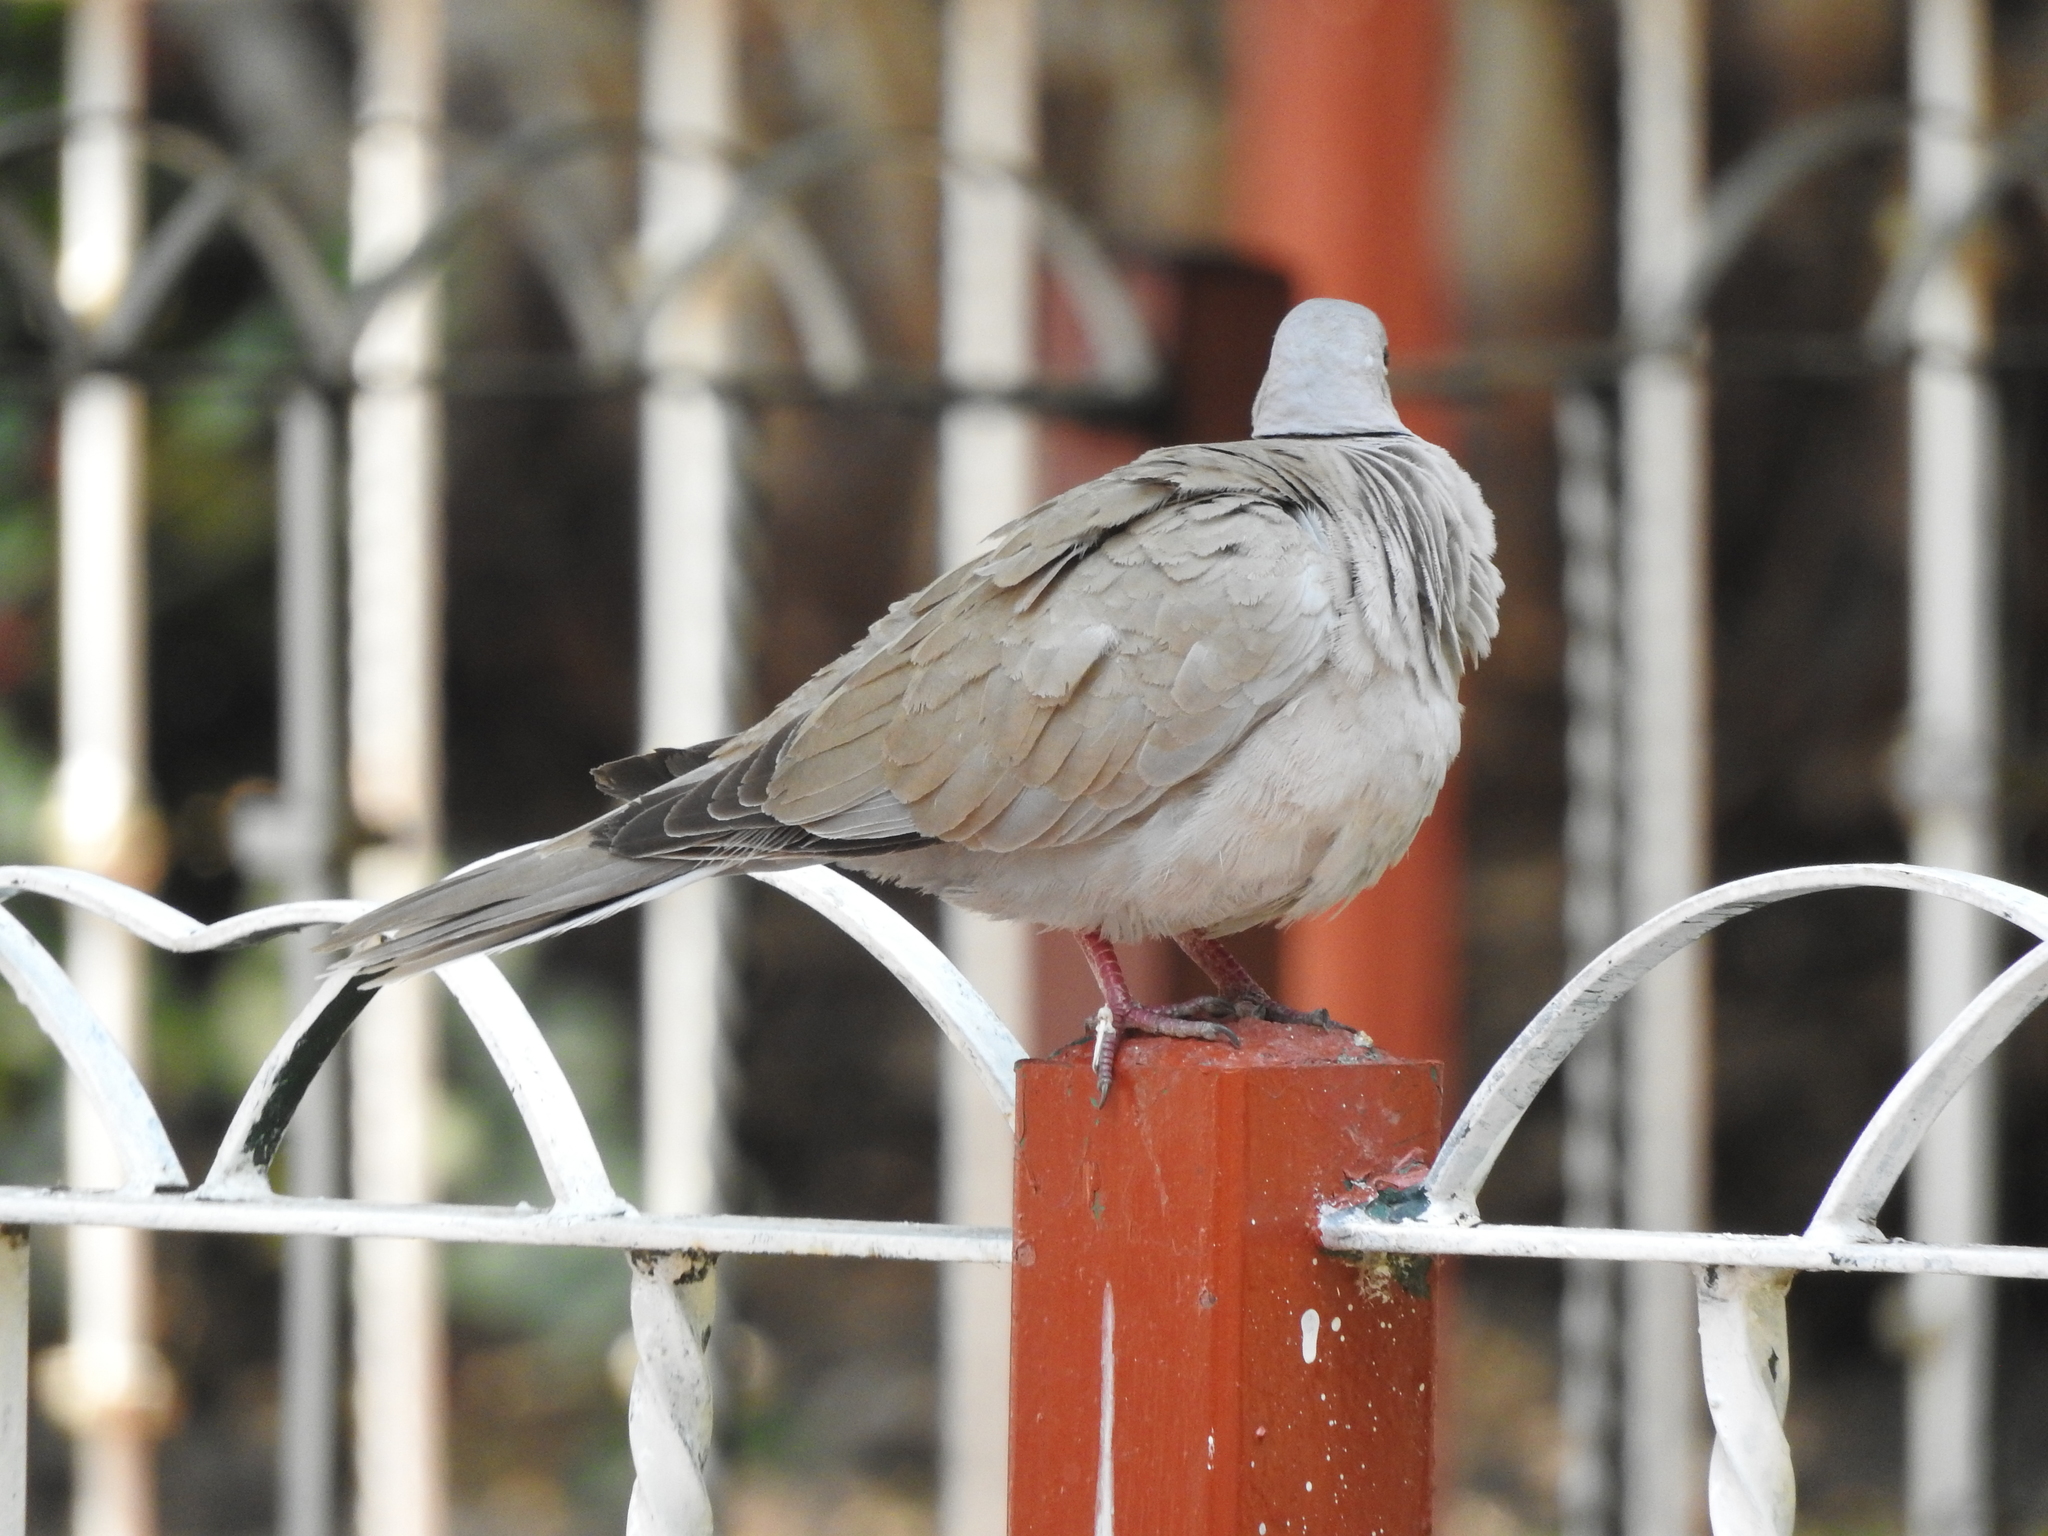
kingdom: Animalia
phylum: Chordata
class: Aves
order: Columbiformes
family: Columbidae
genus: Streptopelia
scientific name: Streptopelia decaocto
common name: Eurasian collared dove
